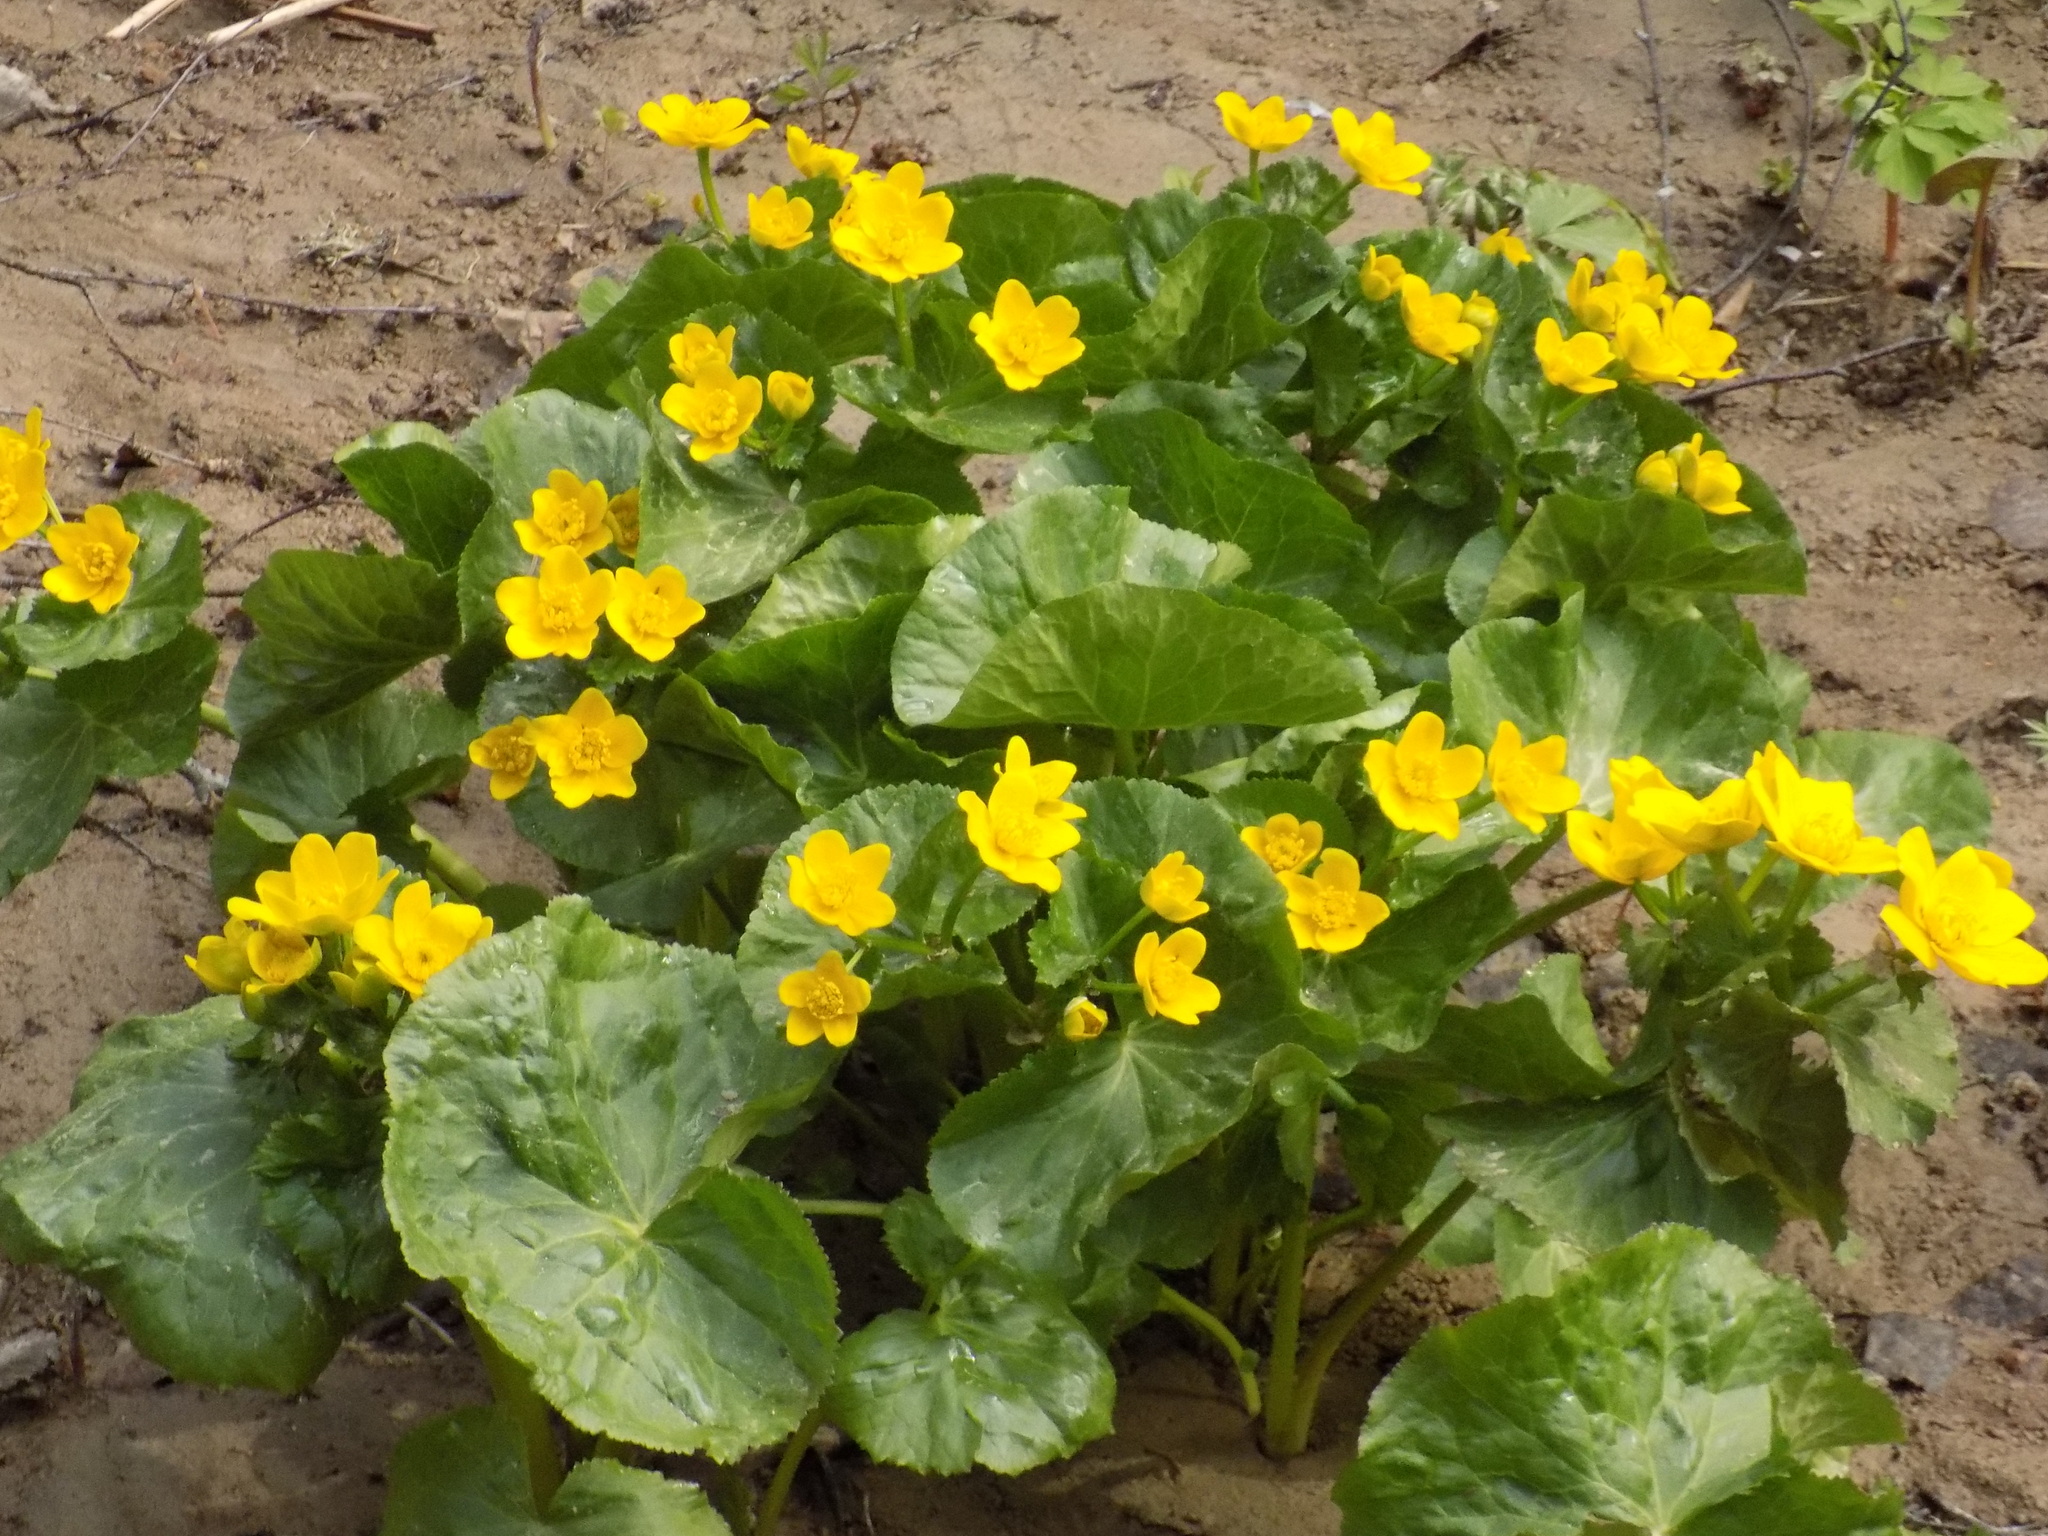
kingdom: Plantae
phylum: Tracheophyta
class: Magnoliopsida
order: Ranunculales
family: Ranunculaceae
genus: Caltha
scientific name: Caltha palustris
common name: Marsh marigold
